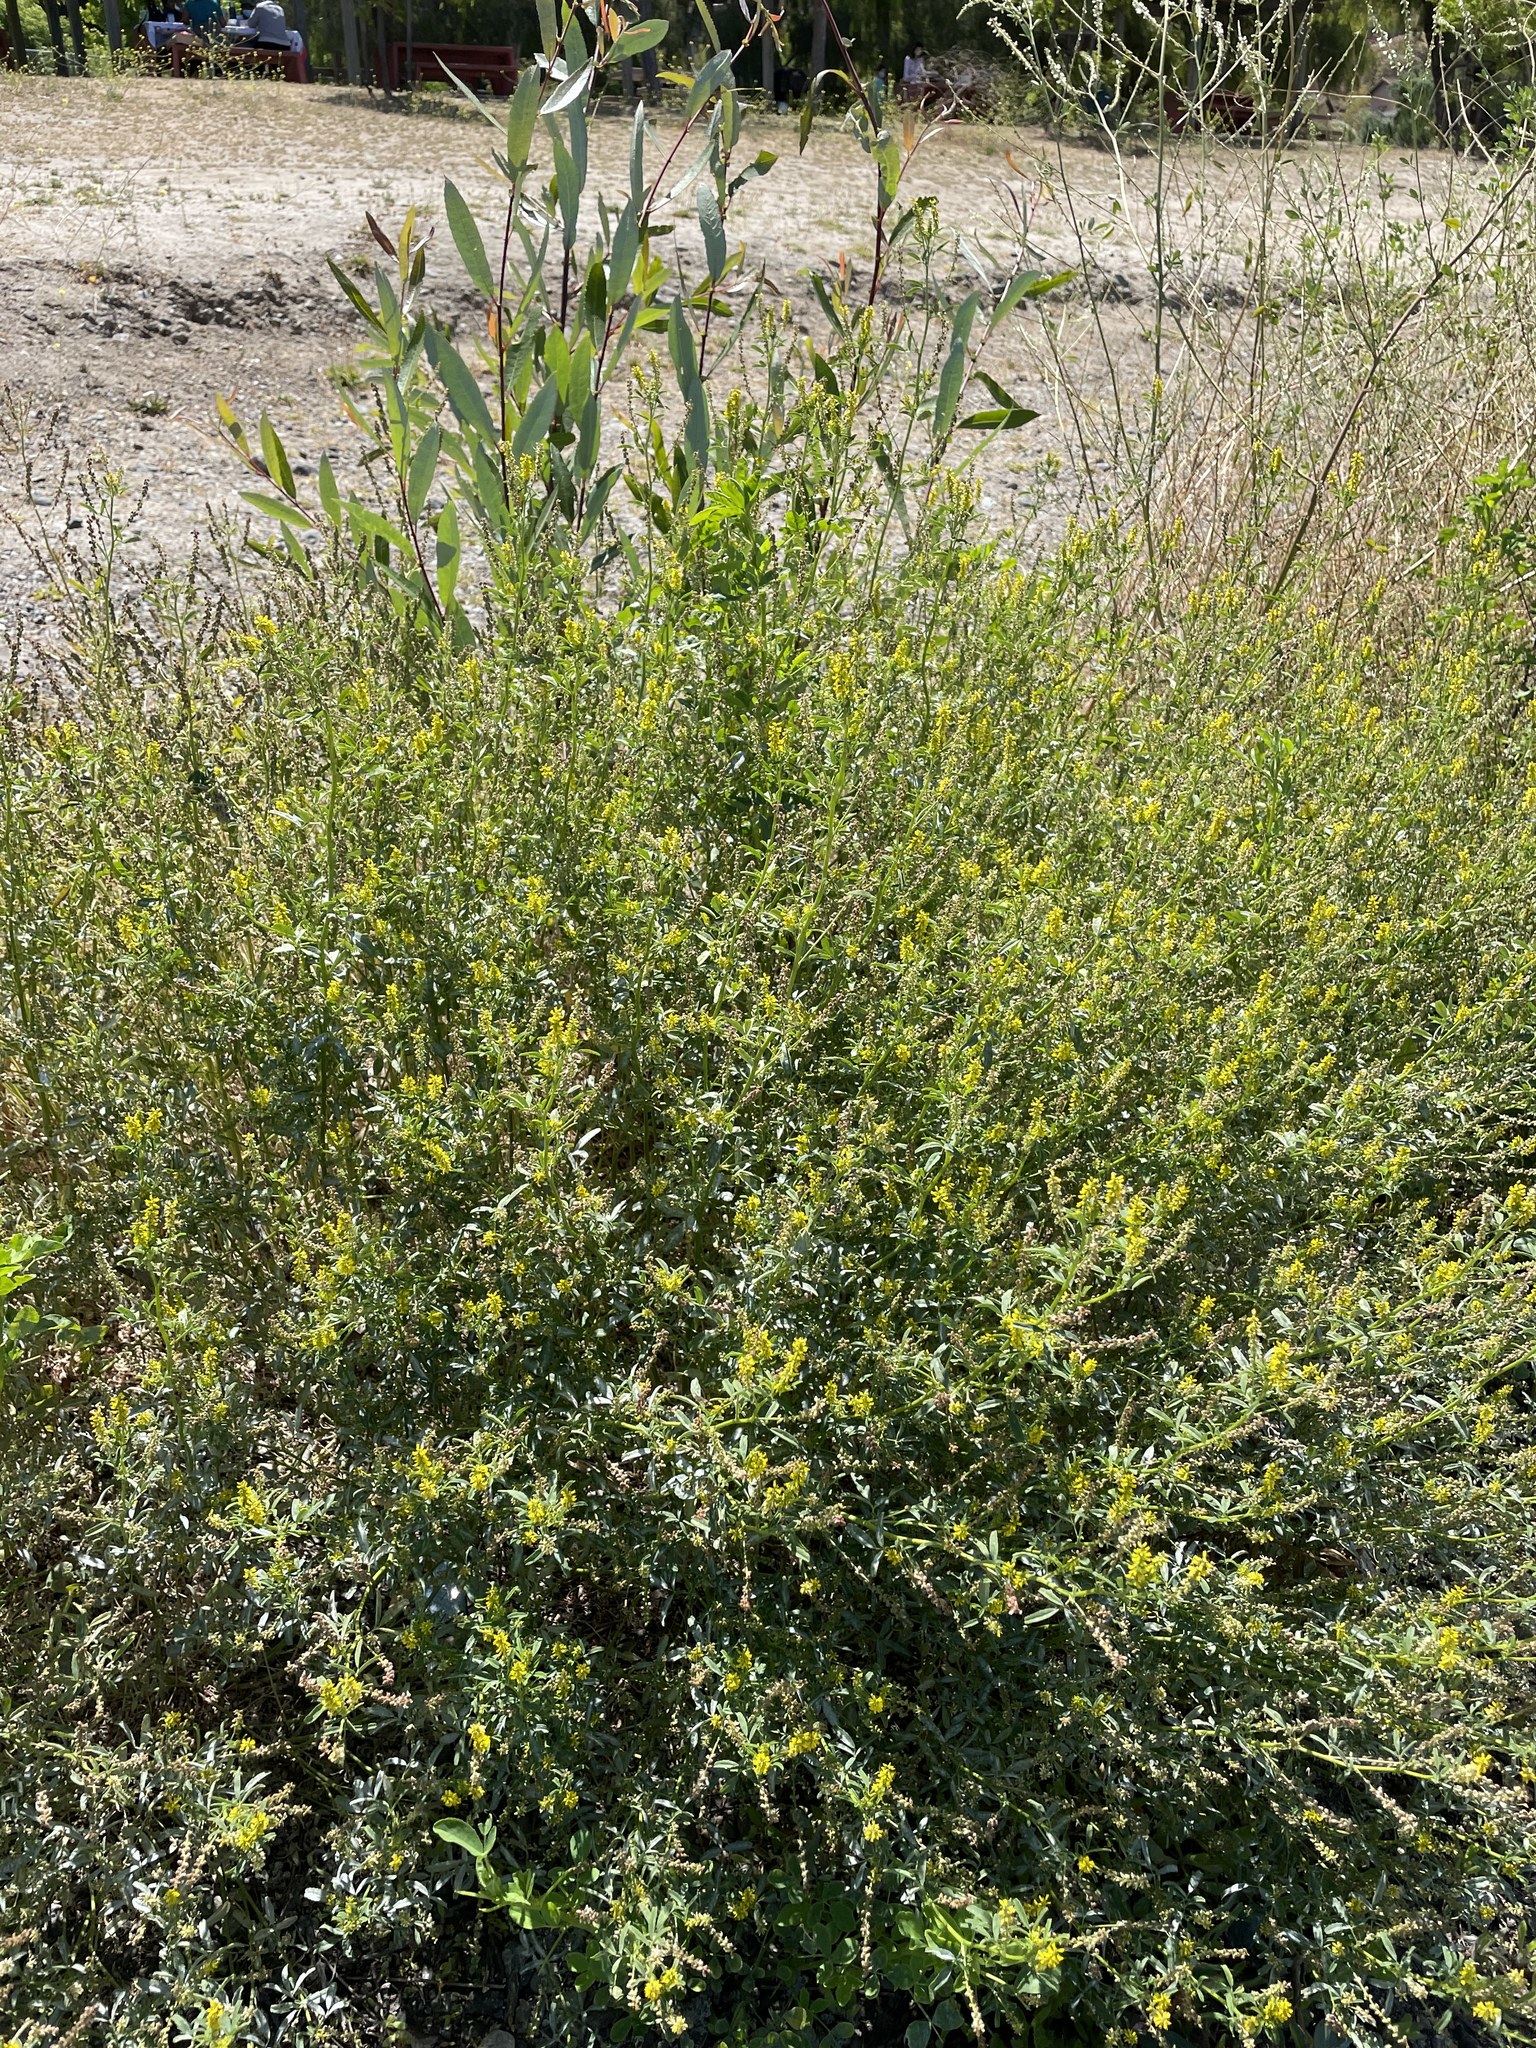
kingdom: Plantae
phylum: Tracheophyta
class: Magnoliopsida
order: Fabales
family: Fabaceae
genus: Melilotus
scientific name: Melilotus indicus
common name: Small melilot
